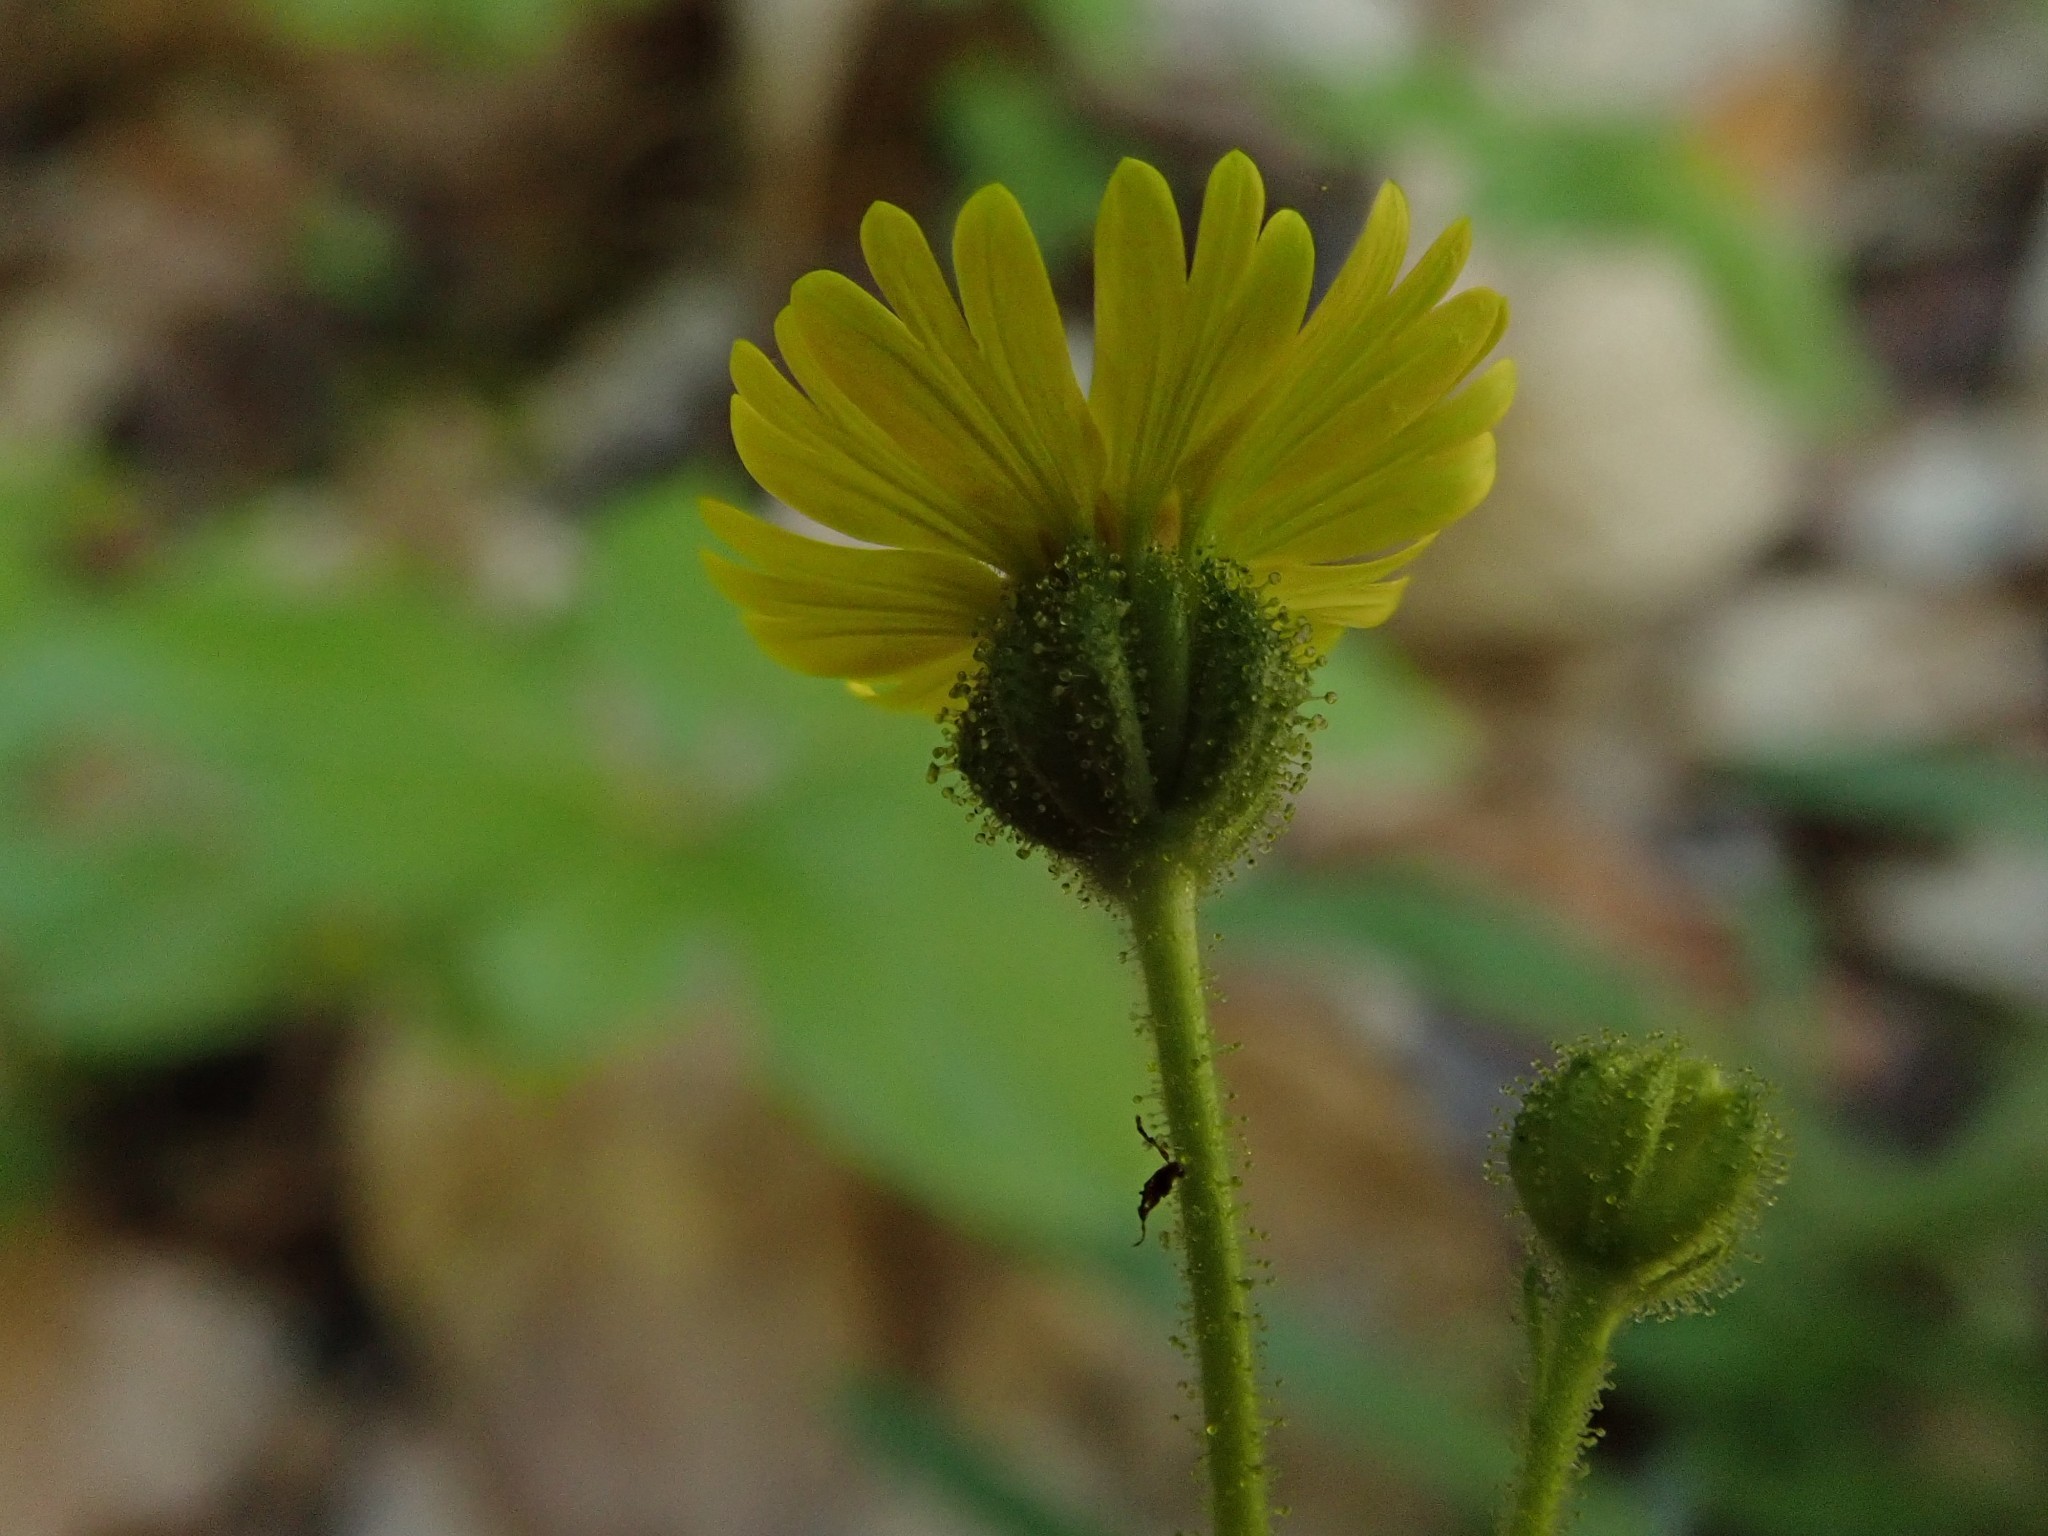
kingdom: Plantae
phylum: Tracheophyta
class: Magnoliopsida
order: Asterales
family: Asteraceae
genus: Anisocarpus
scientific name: Anisocarpus madioides
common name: Woodland madia
